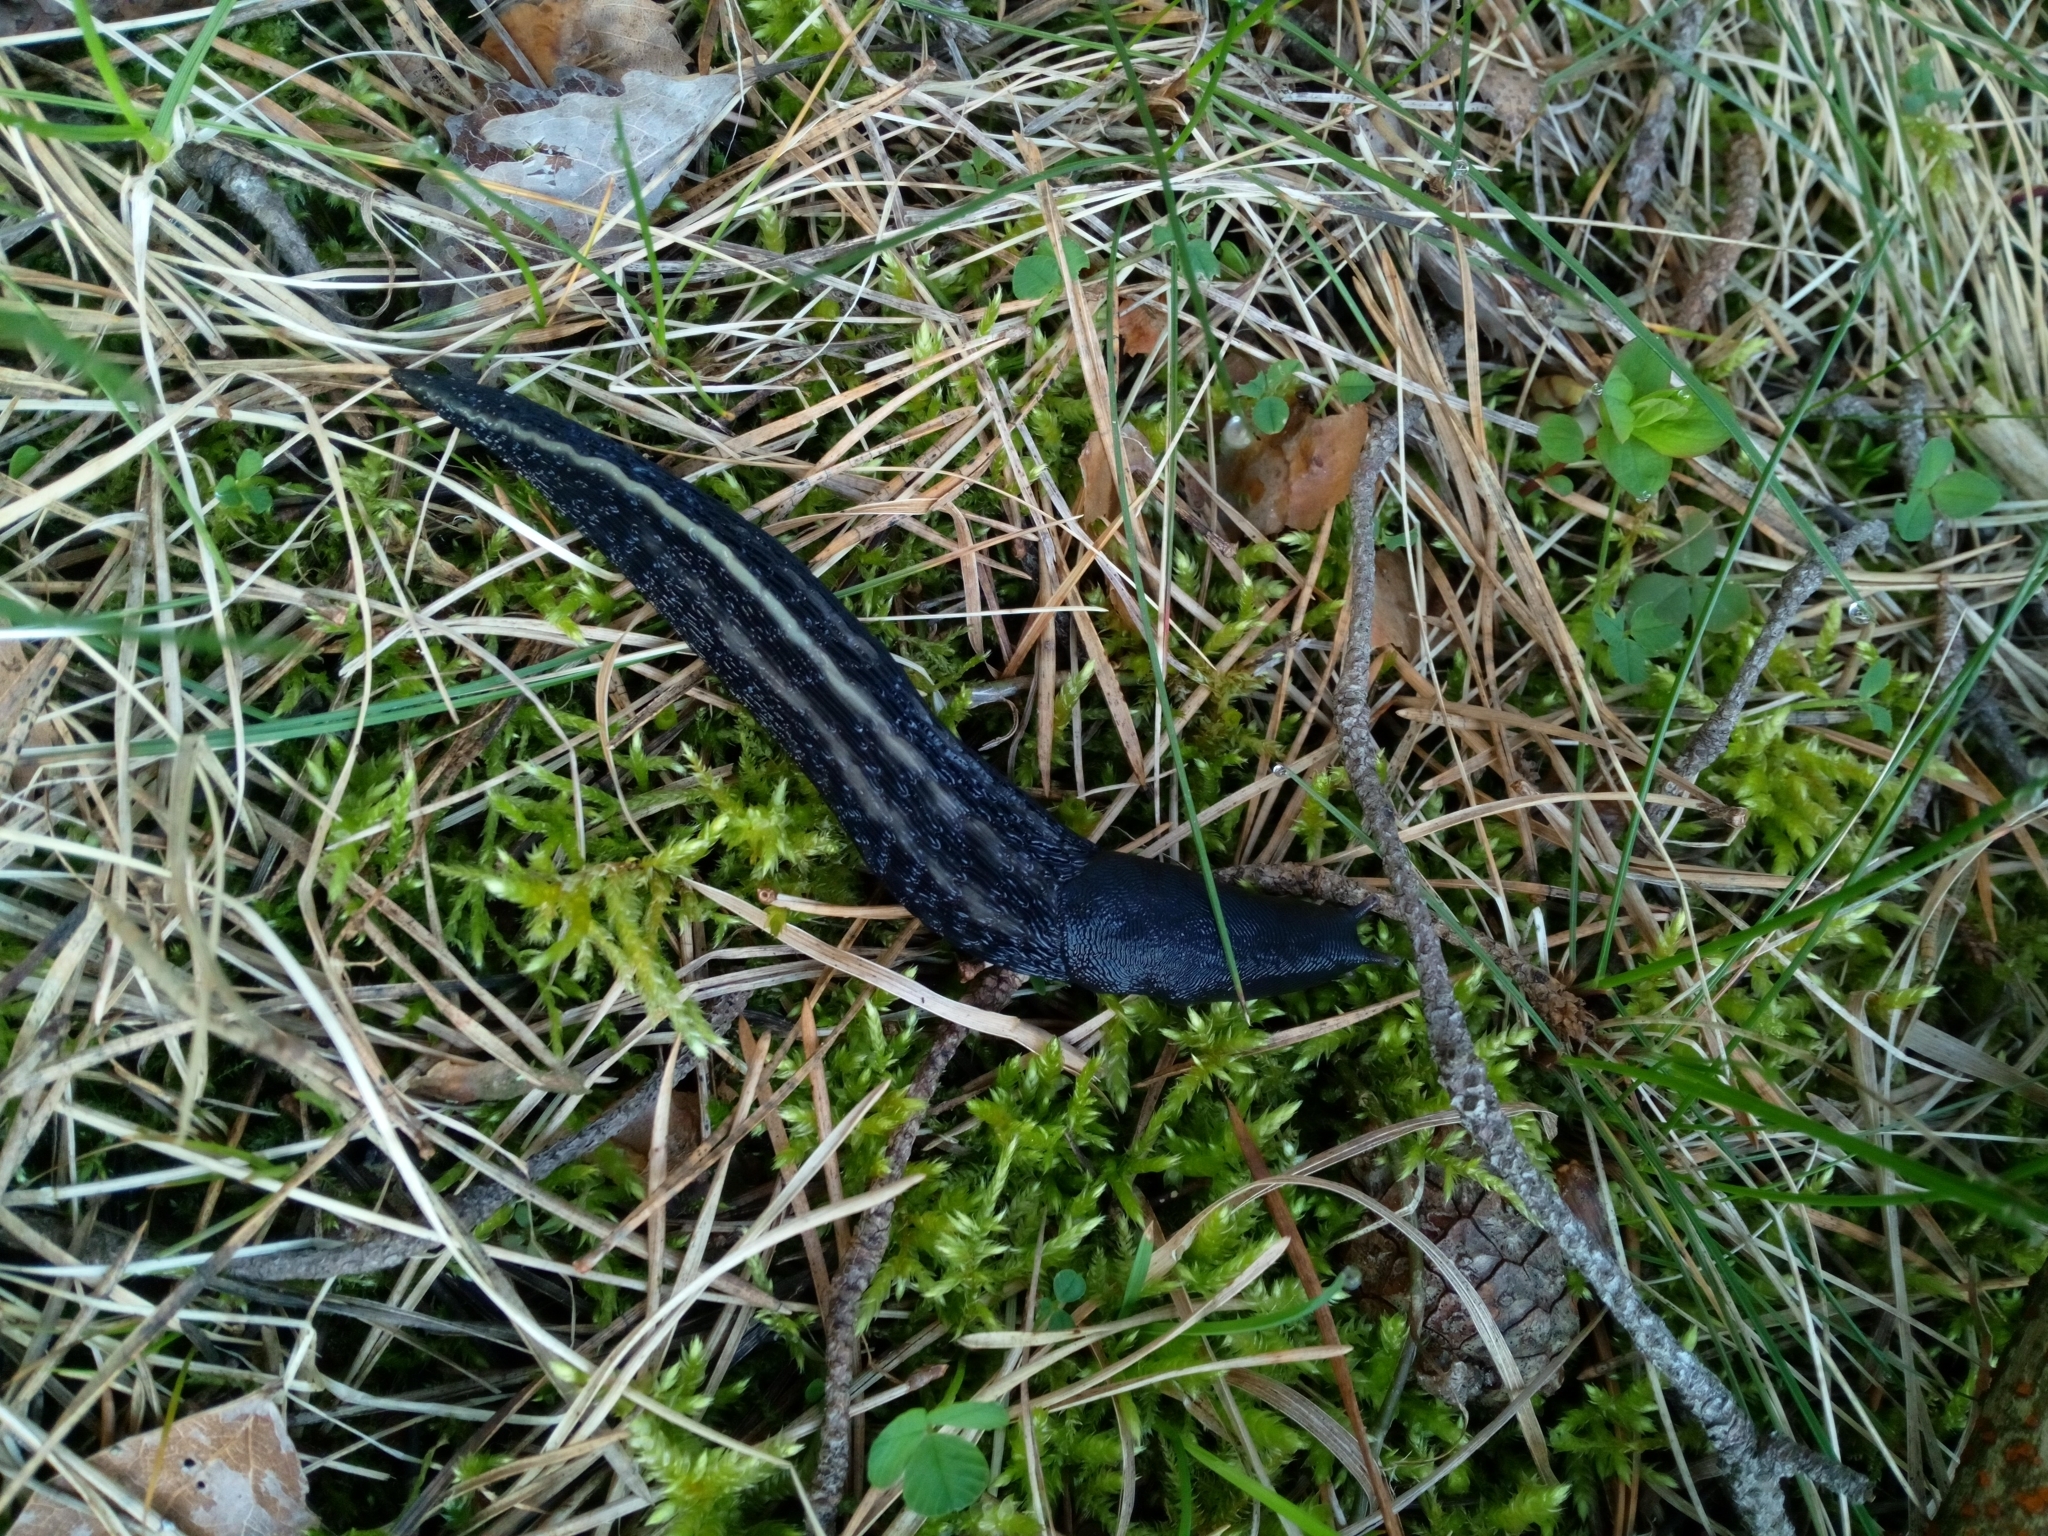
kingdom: Animalia
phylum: Mollusca
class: Gastropoda
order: Stylommatophora
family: Limacidae
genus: Limax
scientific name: Limax cinereoniger
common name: Ash-black slug
